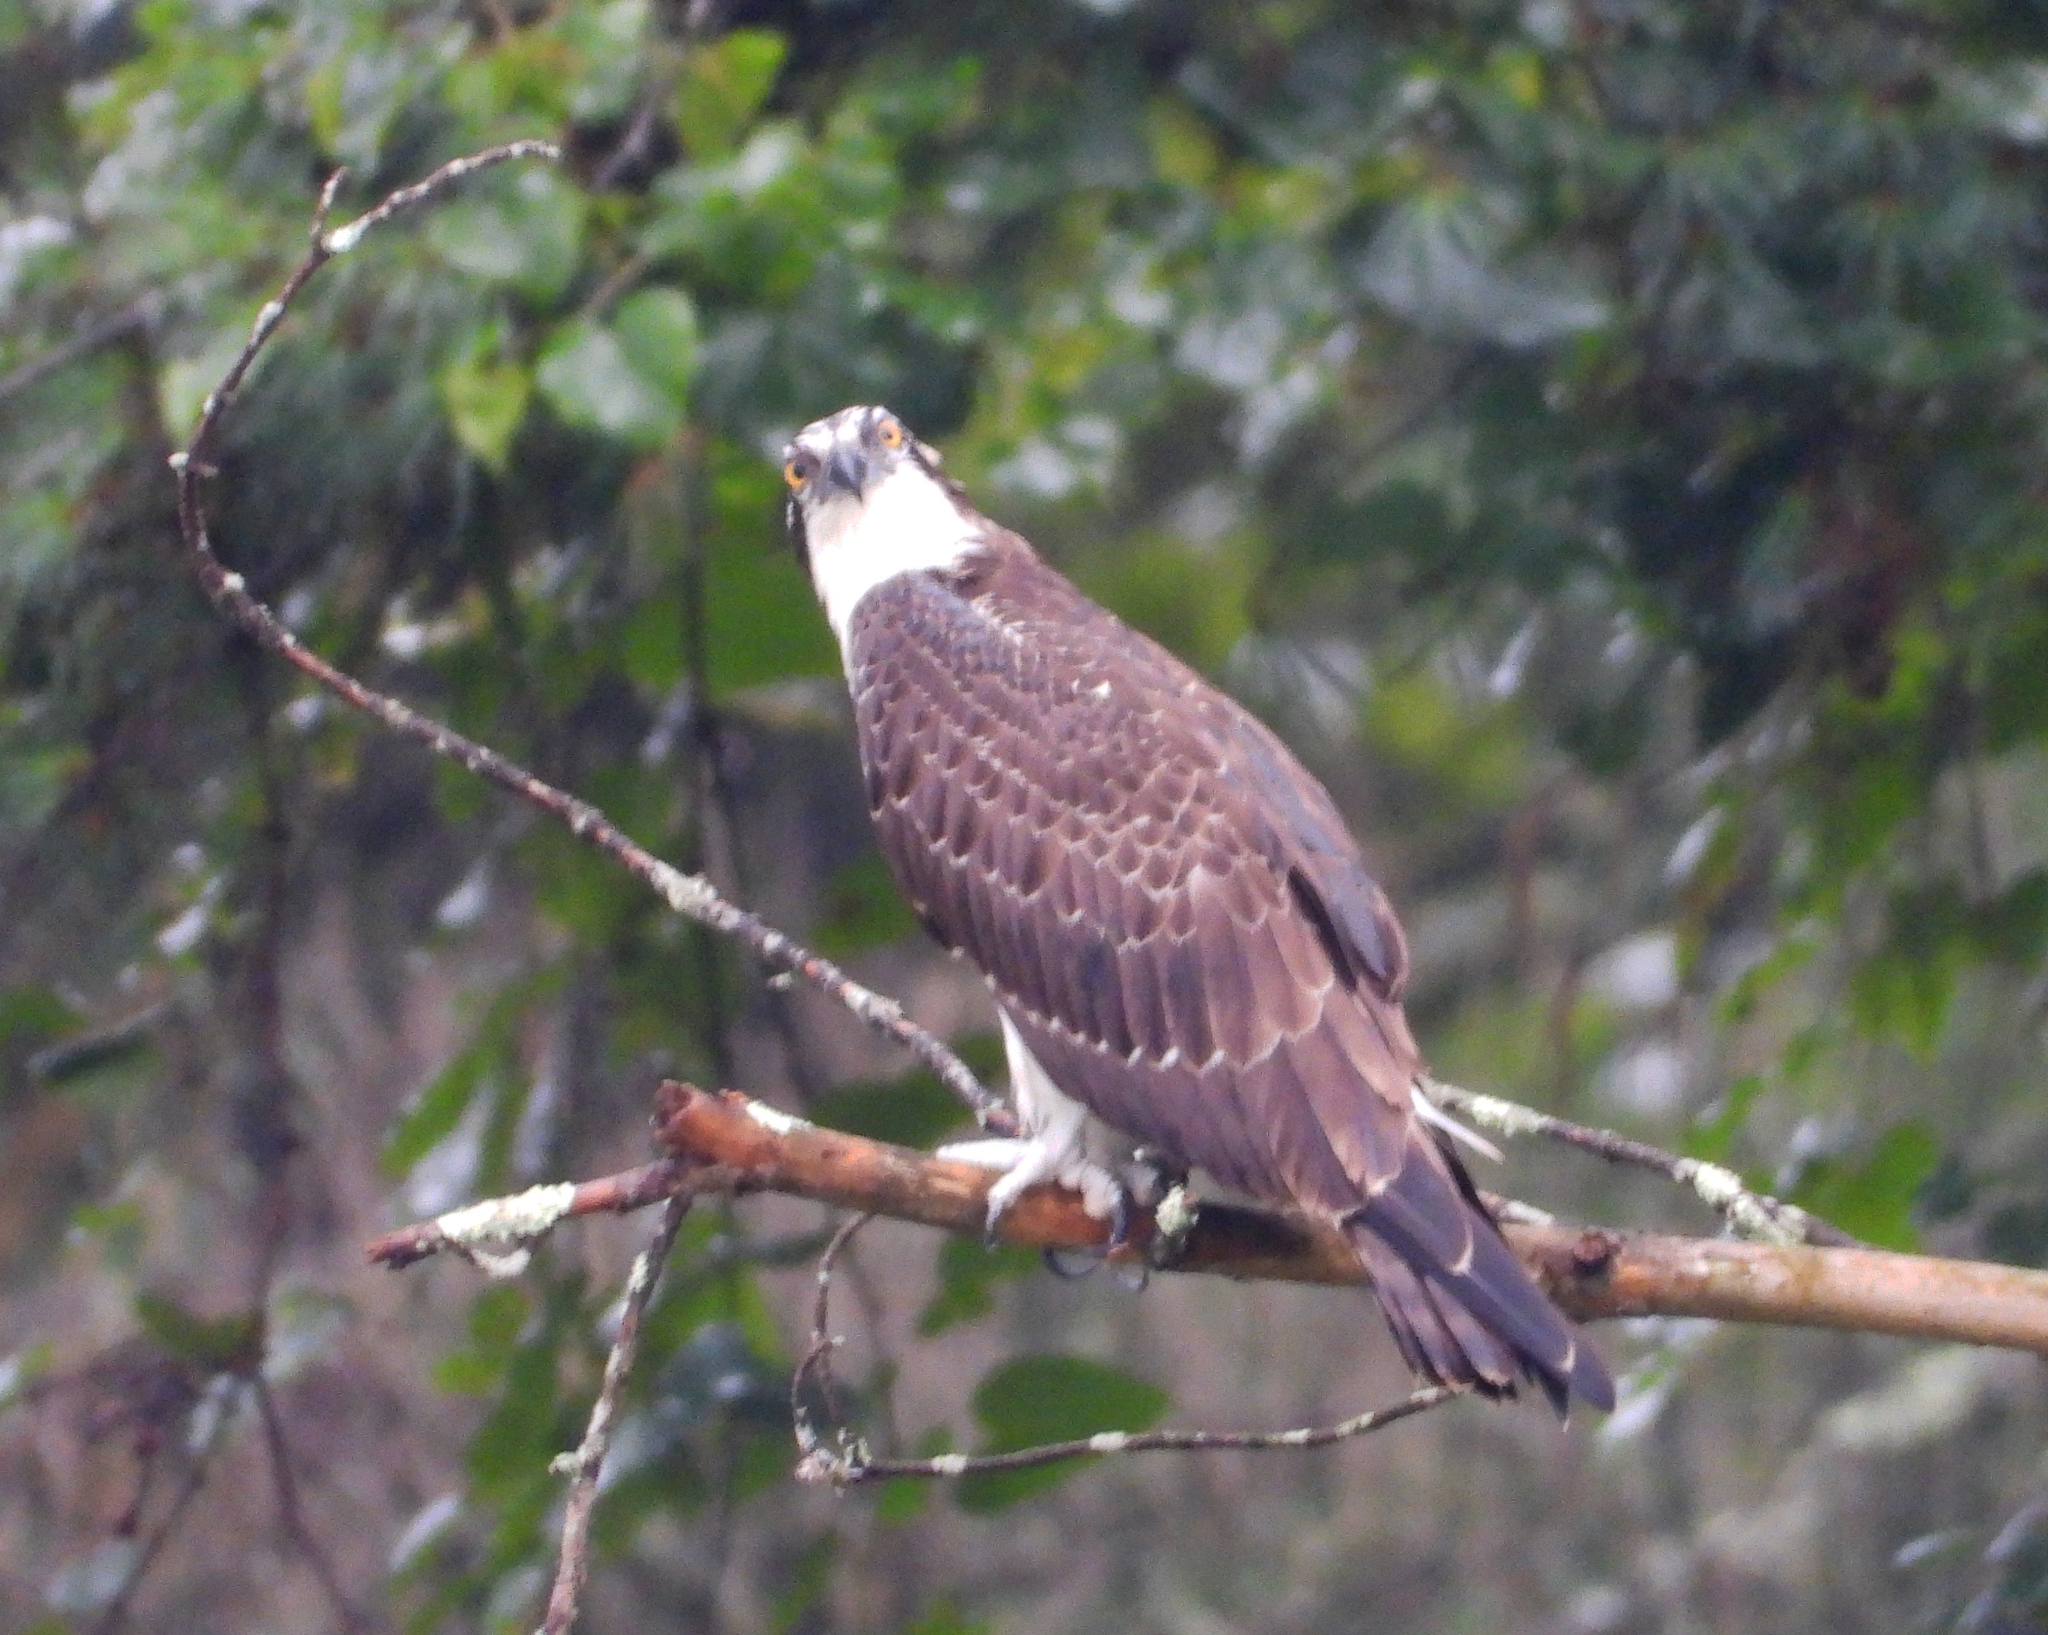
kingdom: Animalia
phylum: Chordata
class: Aves
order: Accipitriformes
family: Pandionidae
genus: Pandion
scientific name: Pandion haliaetus
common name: Osprey
